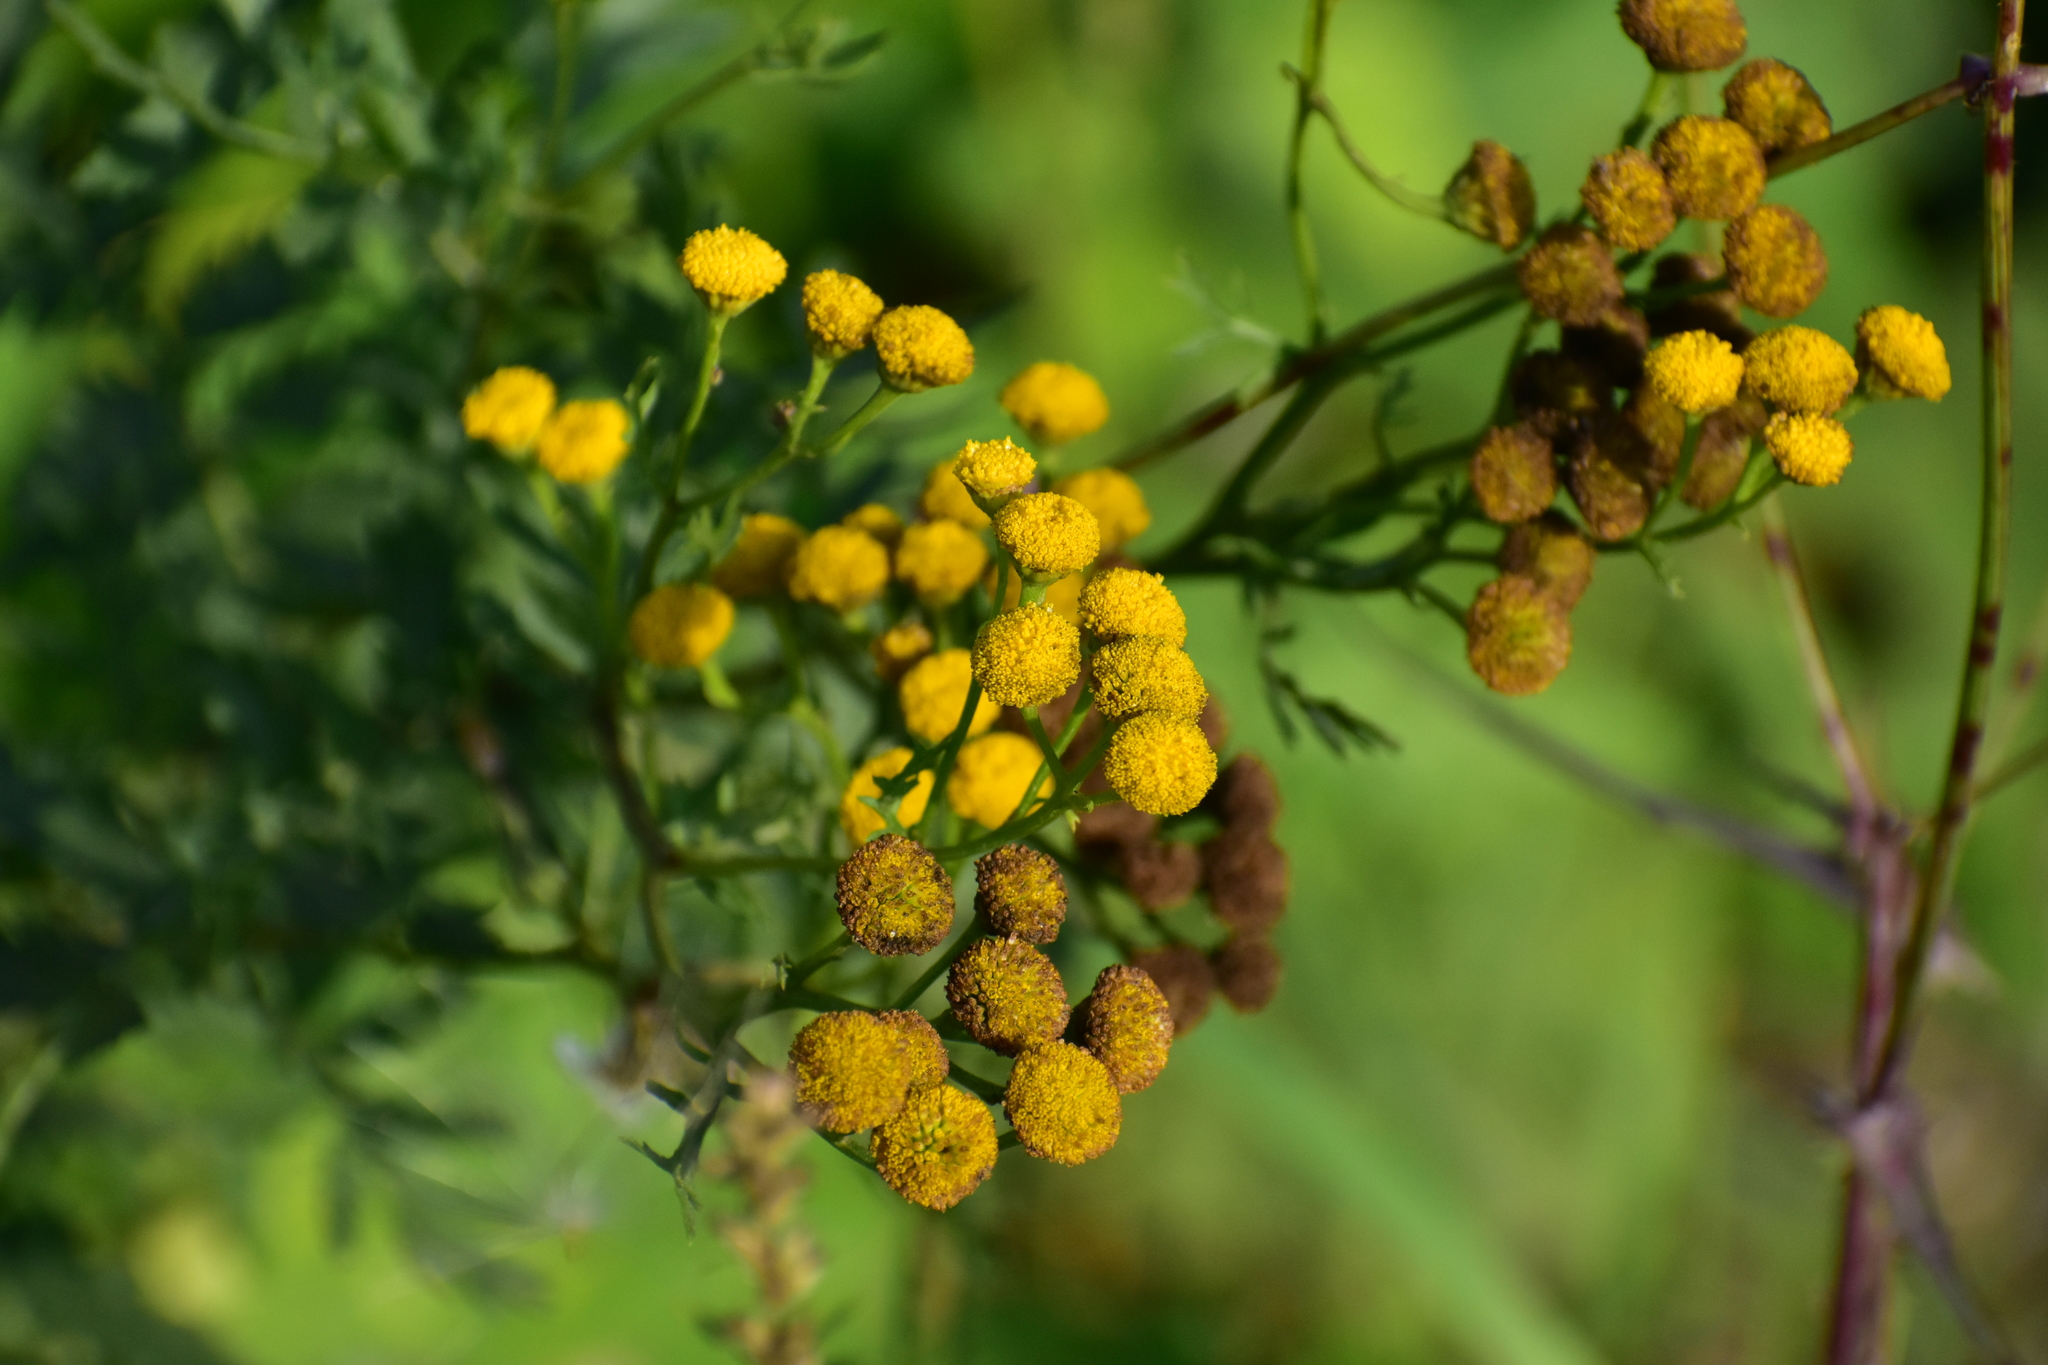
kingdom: Plantae
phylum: Tracheophyta
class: Magnoliopsida
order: Asterales
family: Asteraceae
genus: Tanacetum
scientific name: Tanacetum vulgare
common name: Common tansy
